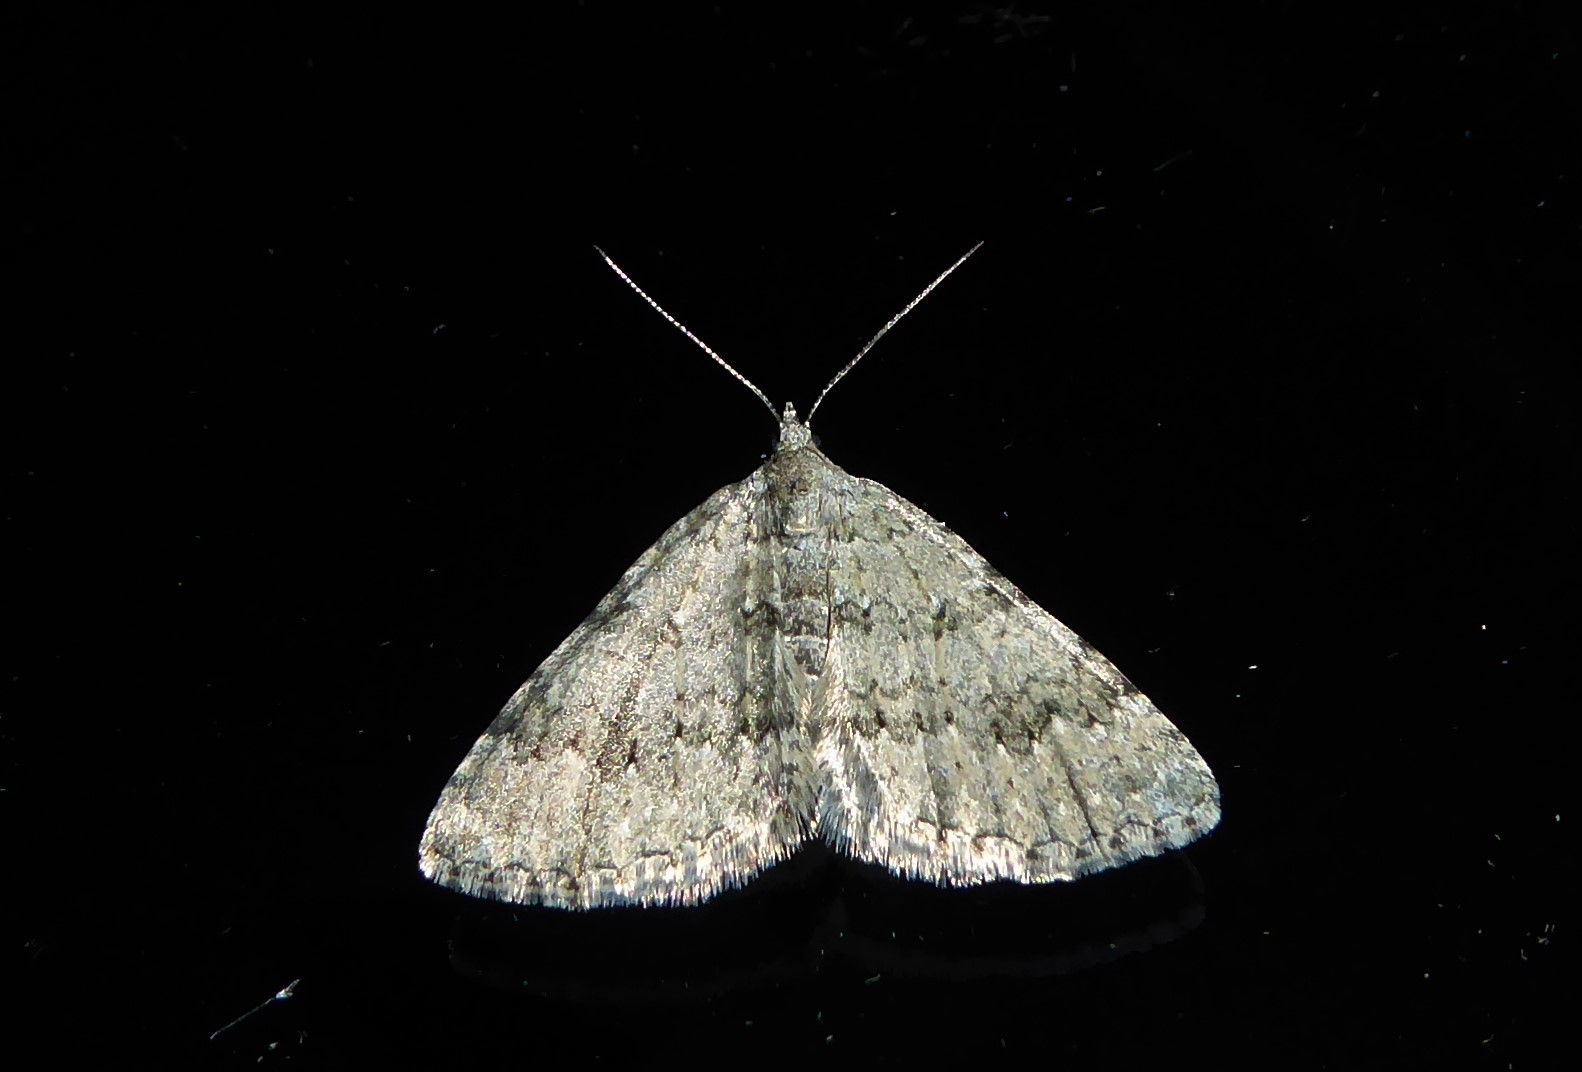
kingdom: Animalia
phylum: Arthropoda
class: Insecta
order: Lepidoptera
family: Geometridae
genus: Helastia
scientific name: Helastia corcularia
